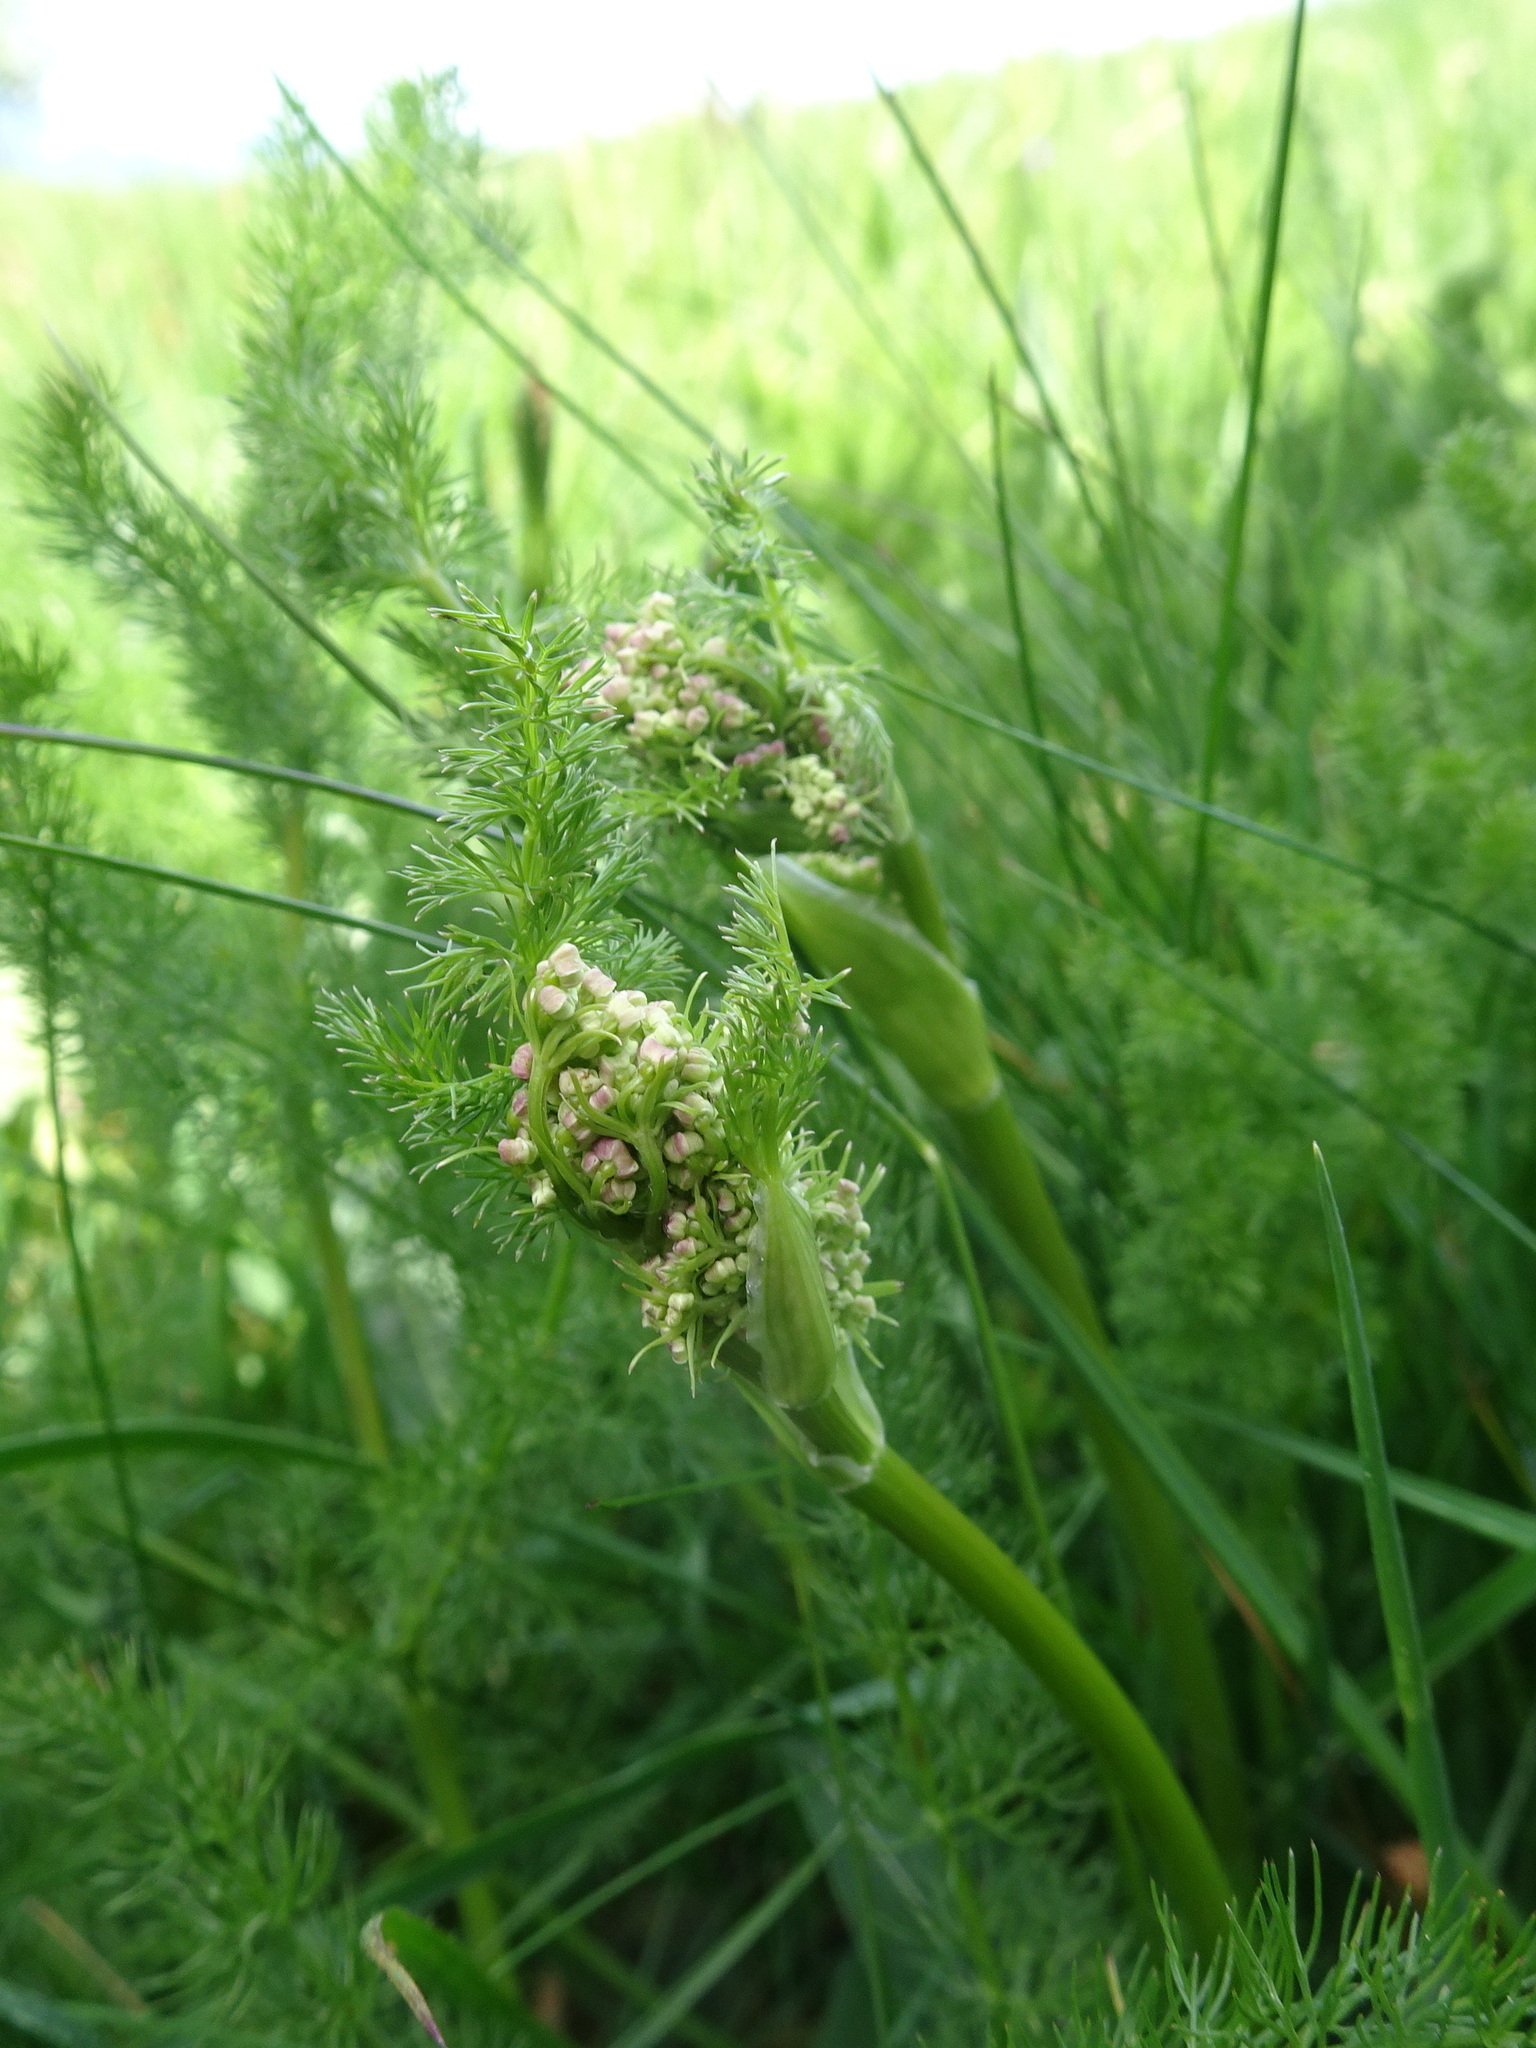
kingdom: Plantae
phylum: Tracheophyta
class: Magnoliopsida
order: Apiales
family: Apiaceae
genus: Meum
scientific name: Meum athamanticum
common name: Spignel
